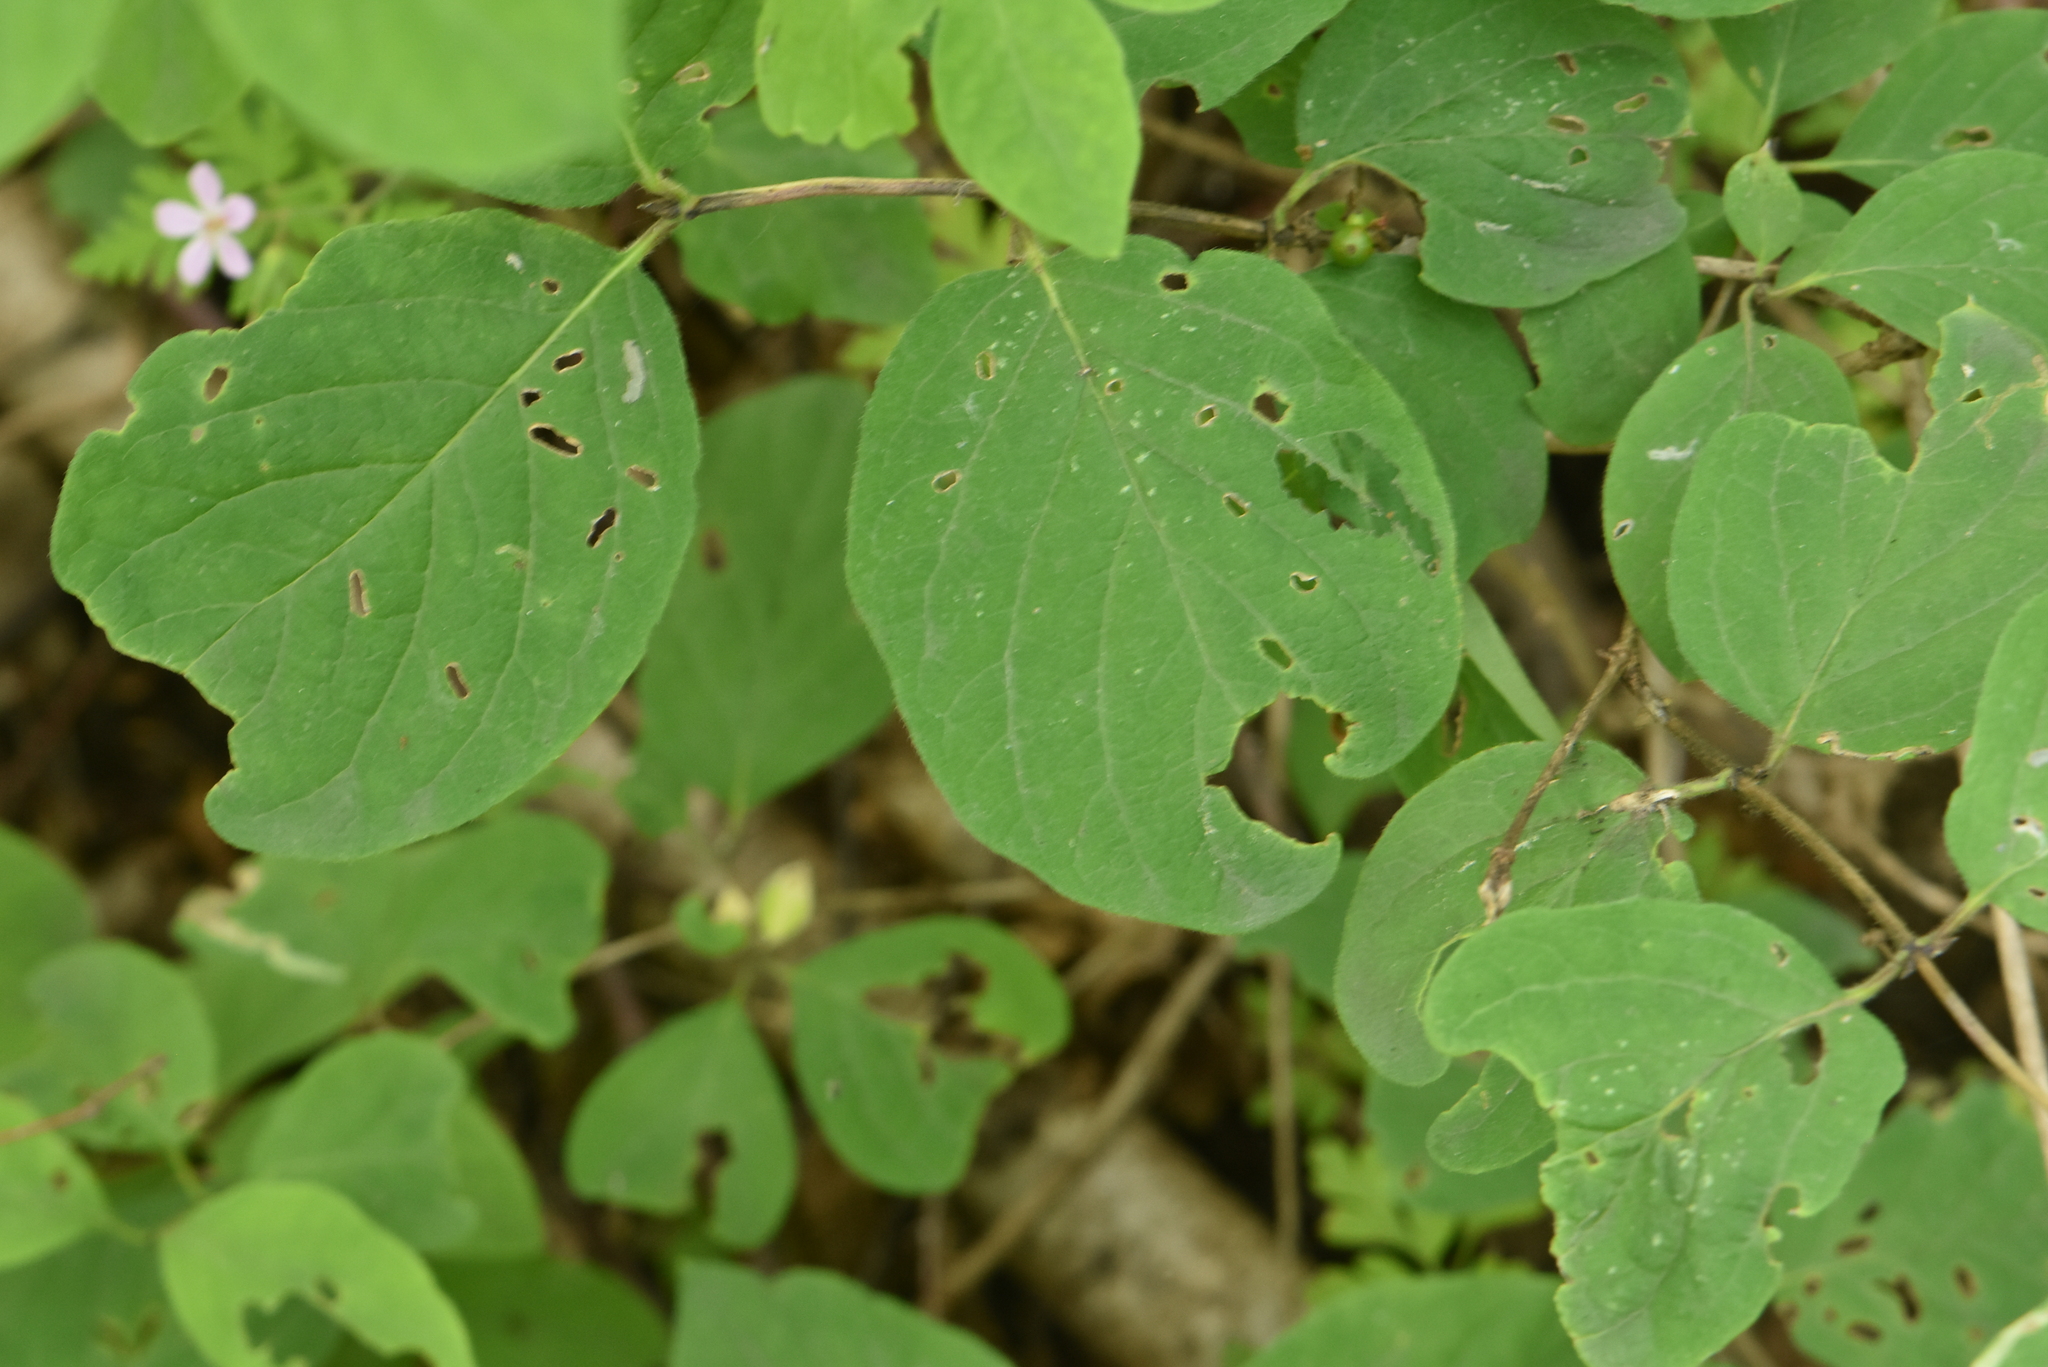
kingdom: Plantae
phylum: Tracheophyta
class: Magnoliopsida
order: Dipsacales
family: Caprifoliaceae
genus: Lonicera
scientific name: Lonicera xylosteum
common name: Fly honeysuckle
